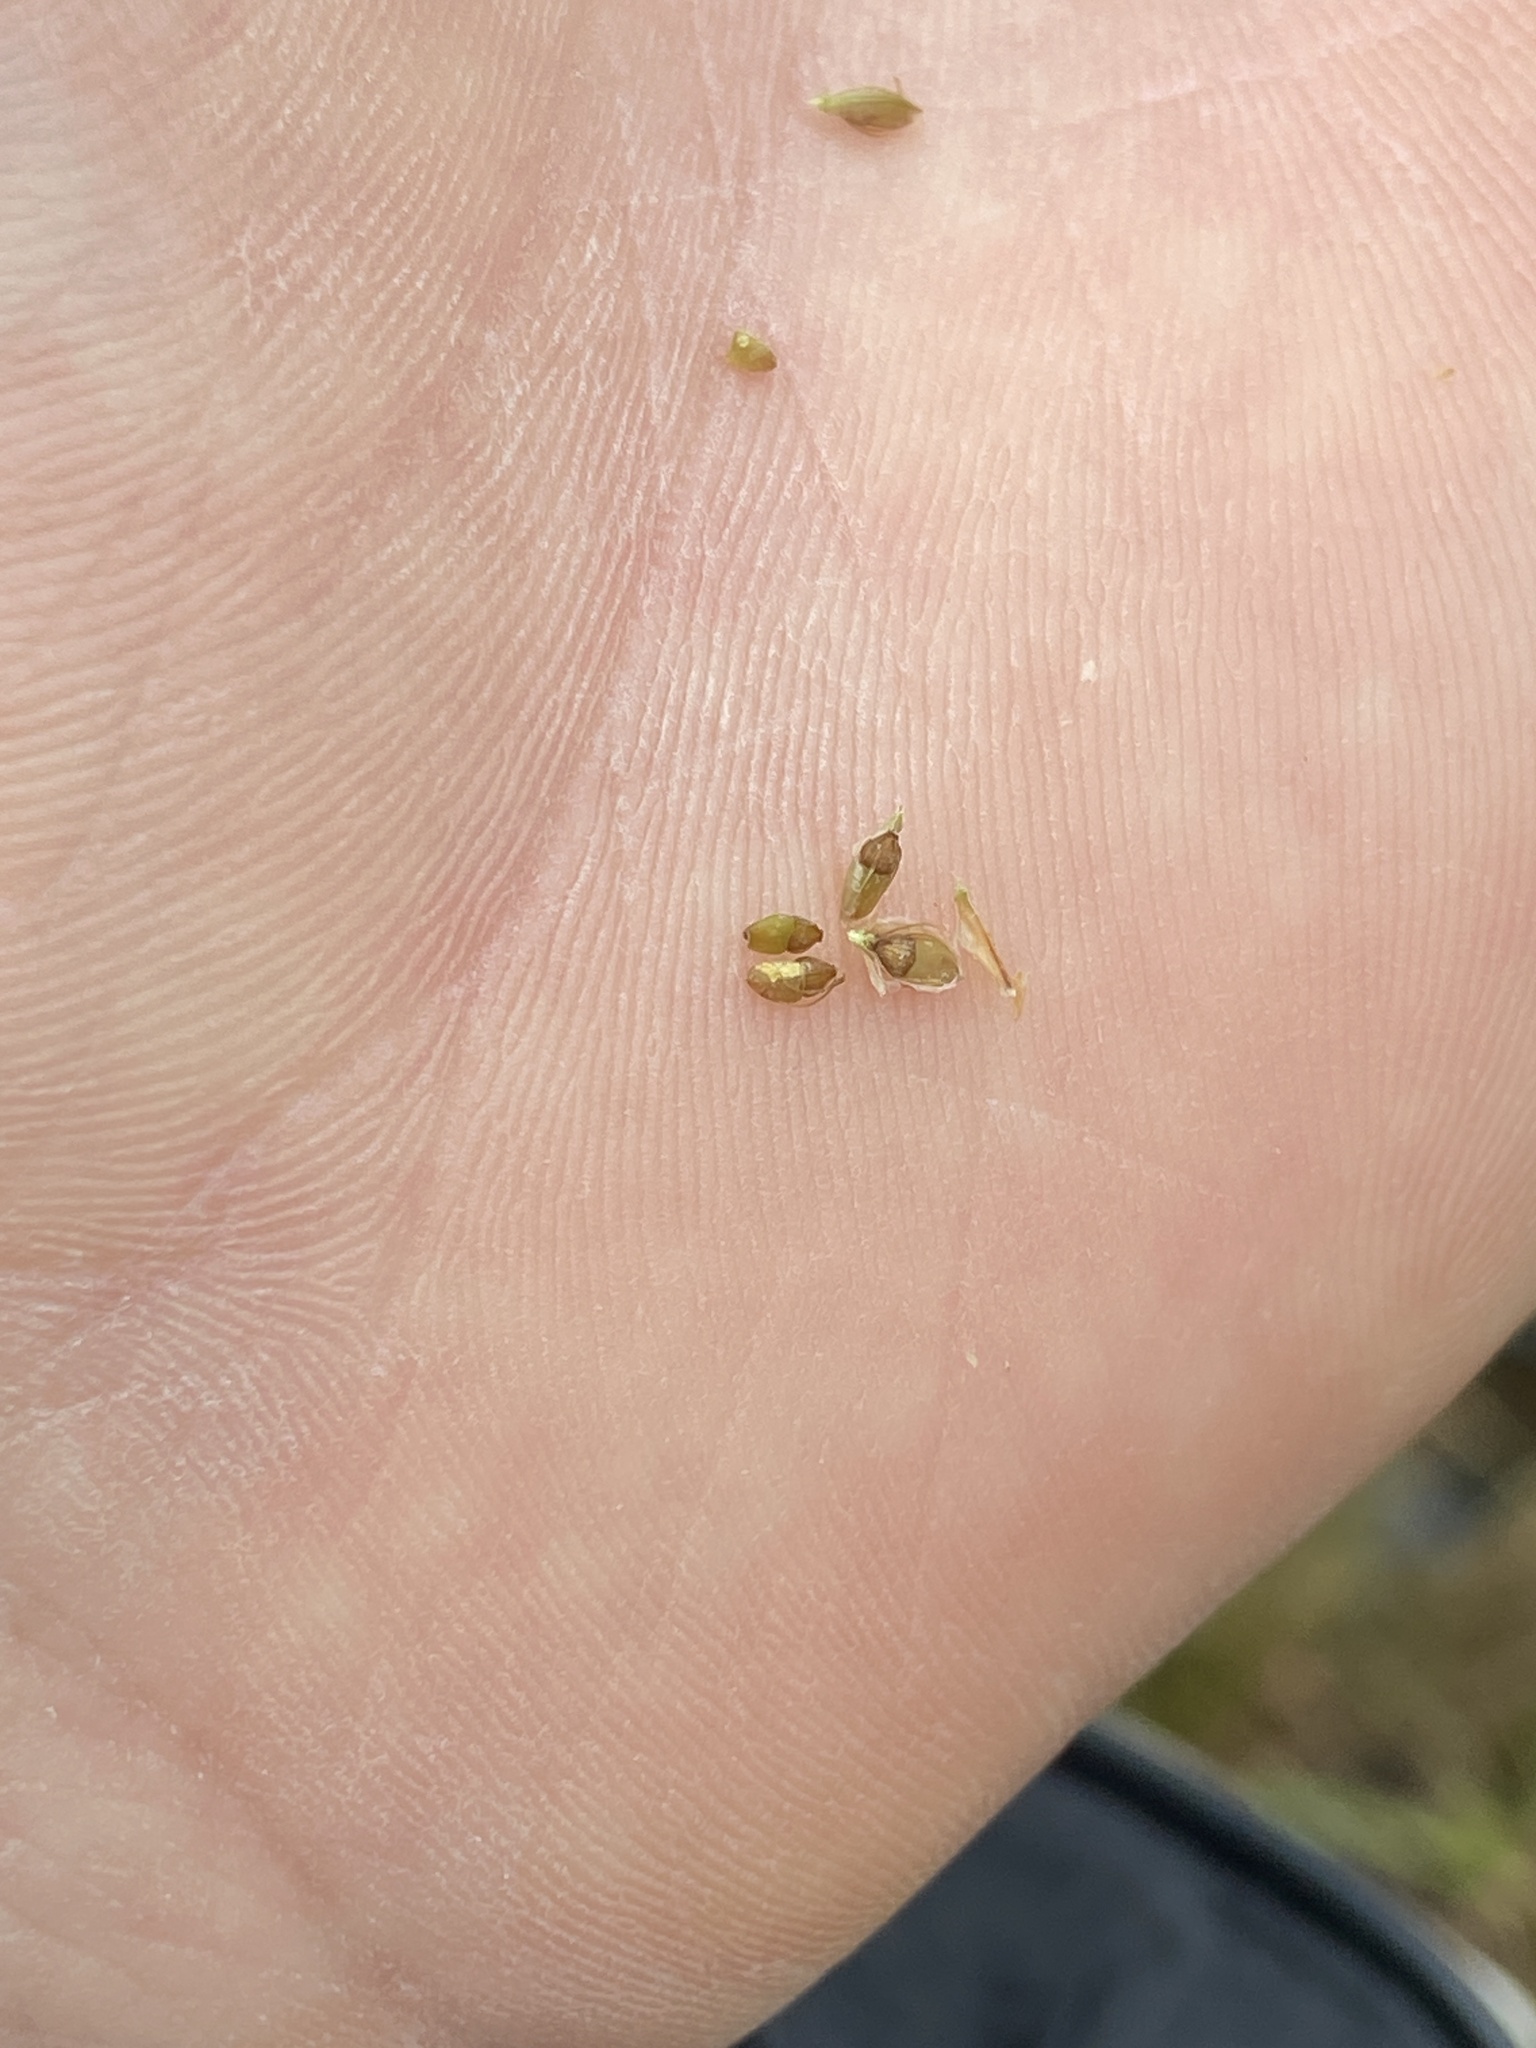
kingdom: Plantae
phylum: Tracheophyta
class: Liliopsida
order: Poales
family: Cyperaceae
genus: Eleocharis
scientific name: Eleocharis tuberculosa
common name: Cone-cup spikerush
